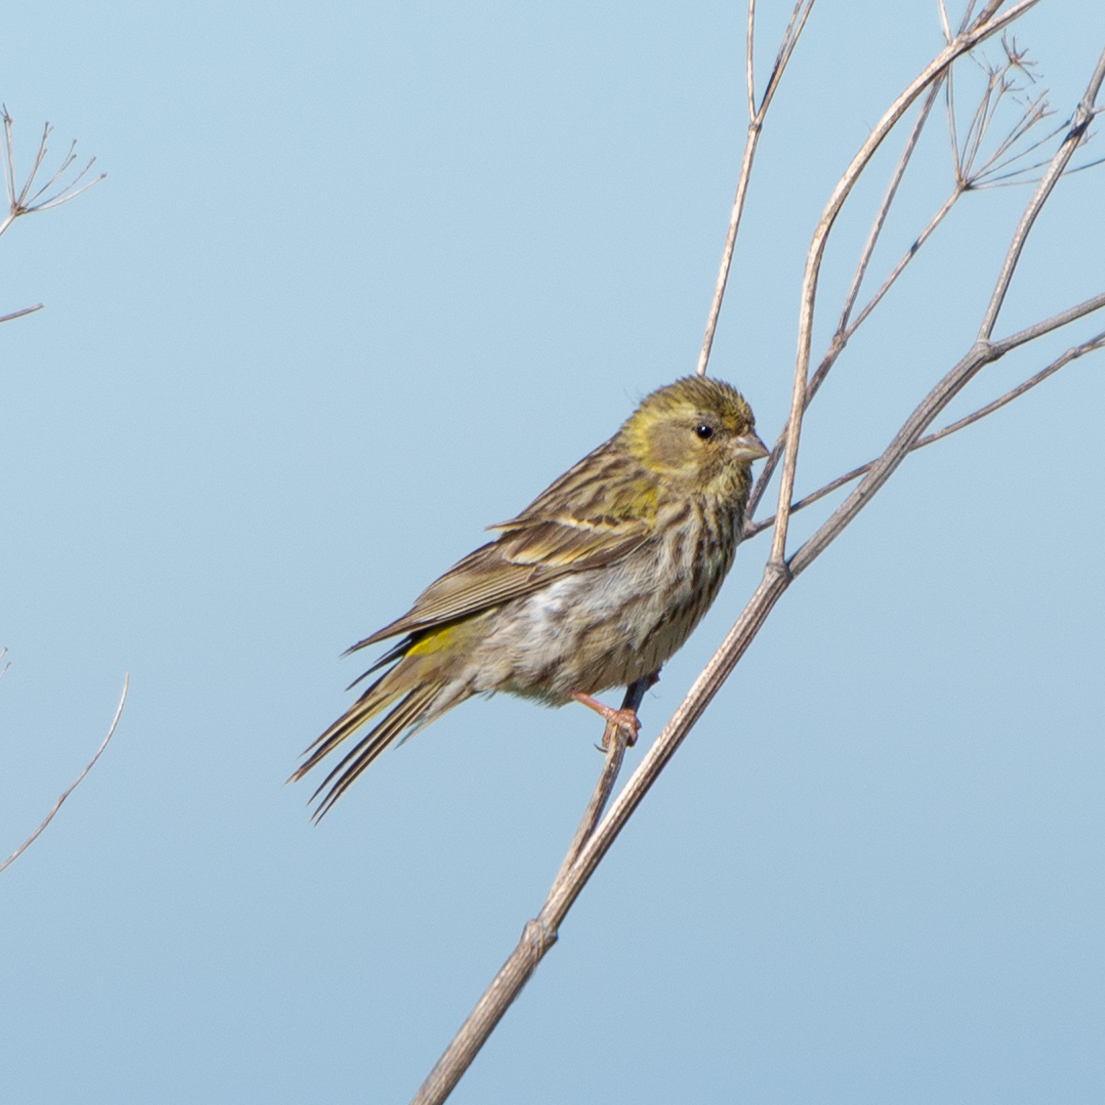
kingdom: Animalia
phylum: Chordata
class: Aves
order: Passeriformes
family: Fringillidae
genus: Serinus
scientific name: Serinus serinus
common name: European serin
